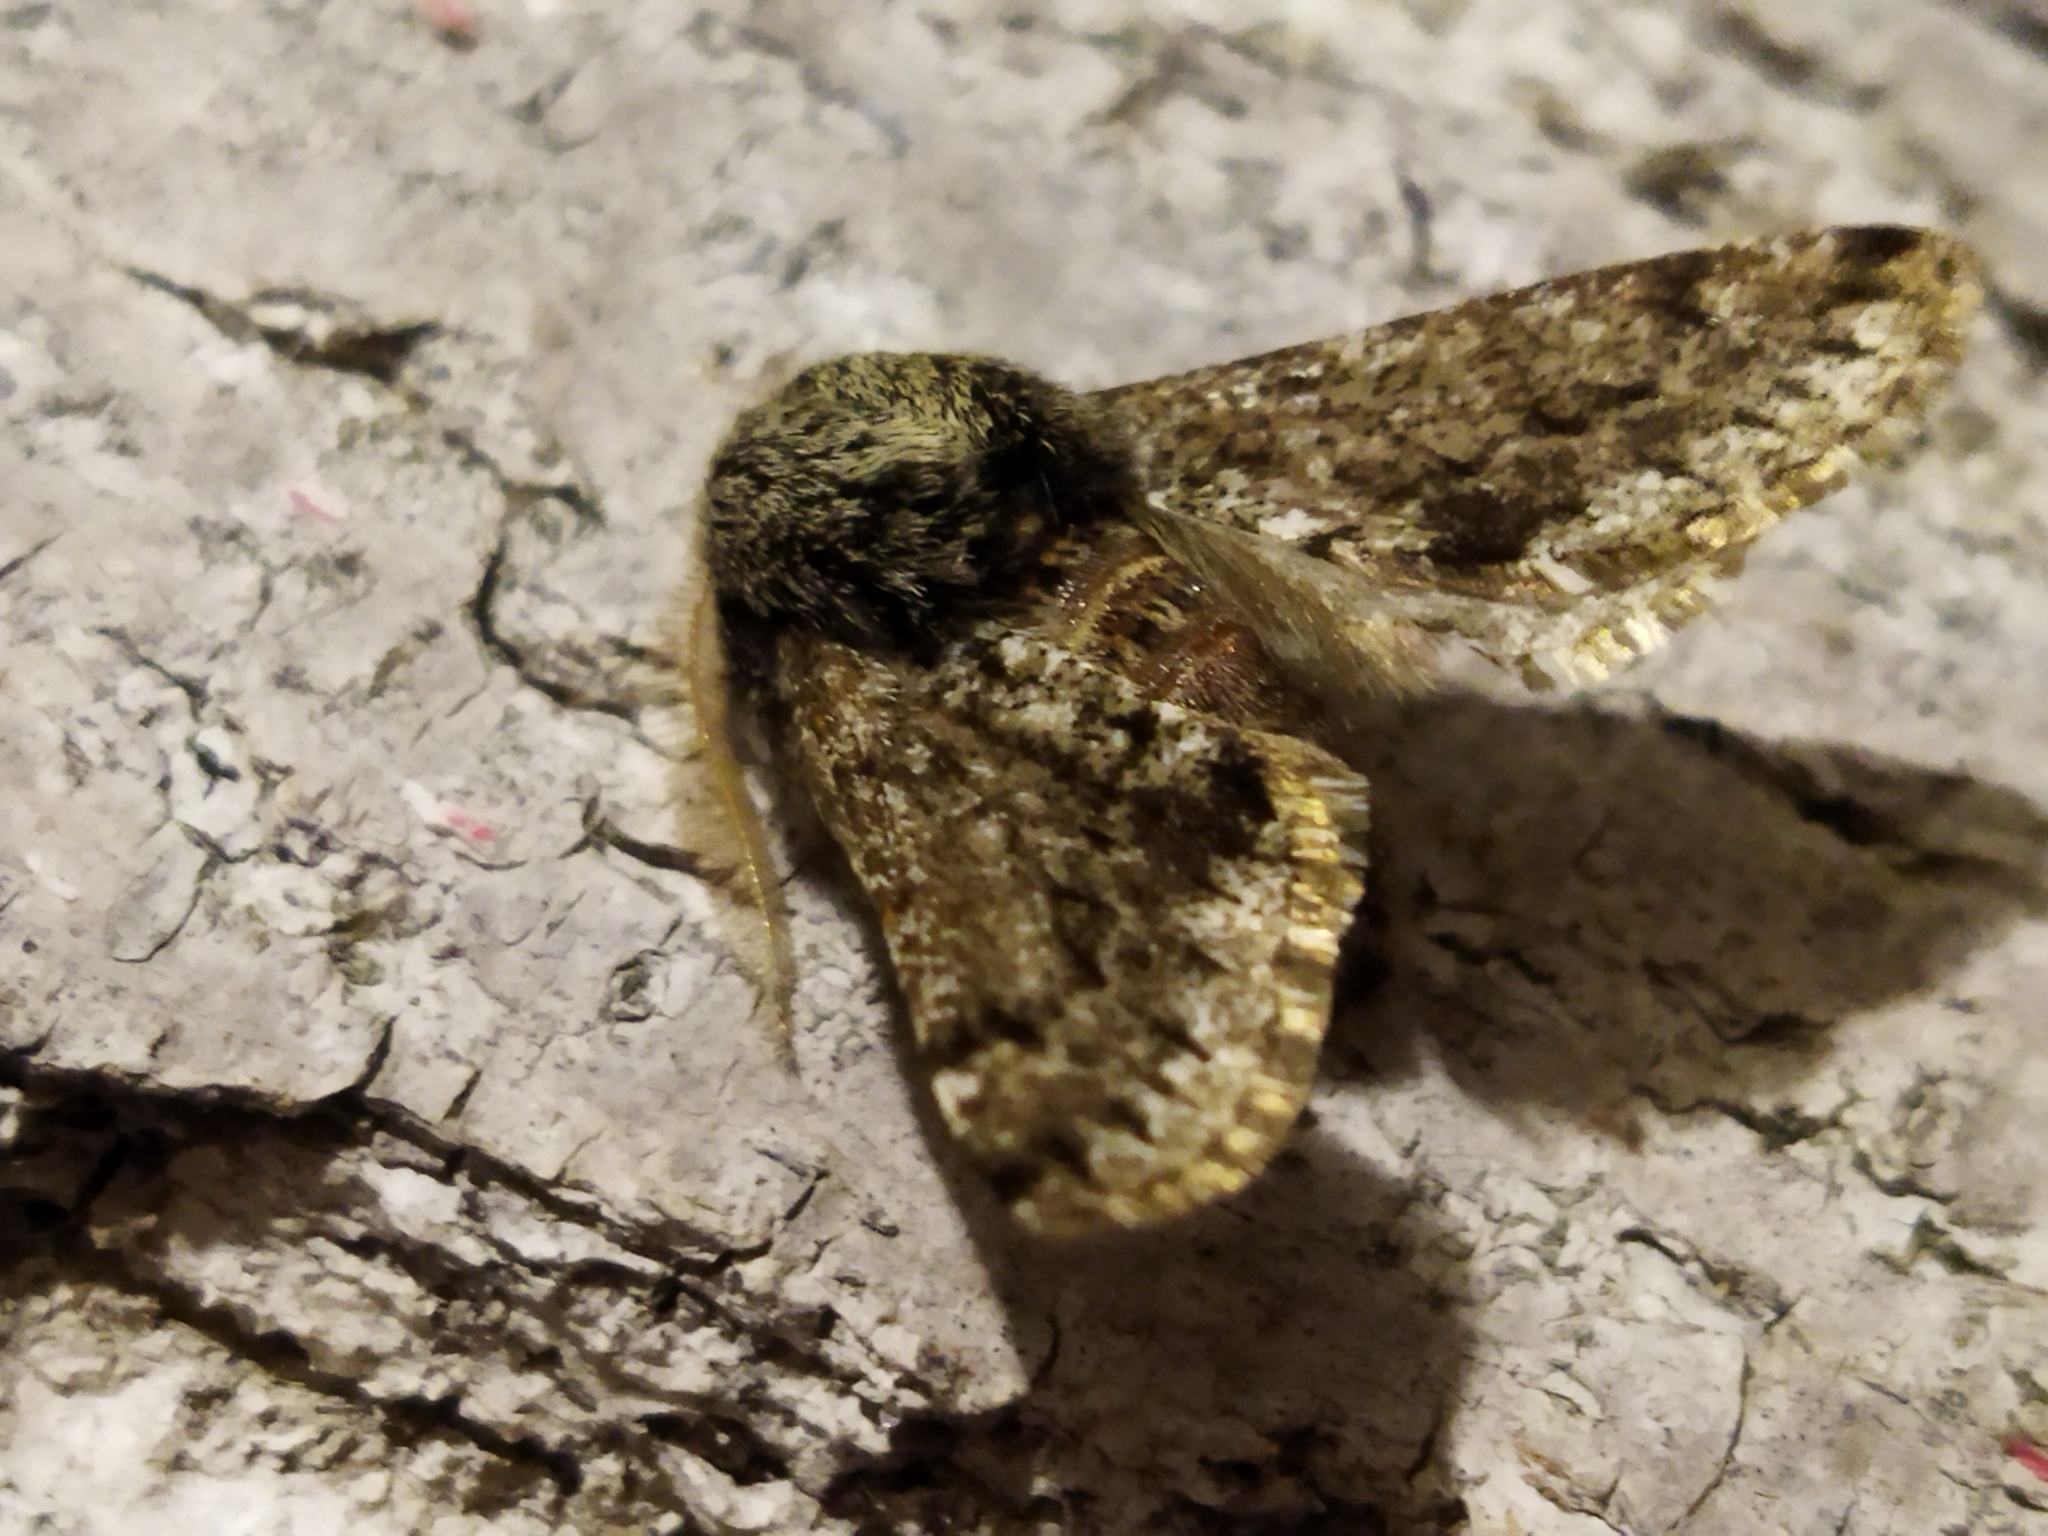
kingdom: Animalia
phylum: Arthropoda
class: Insecta
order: Lepidoptera
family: Geometridae
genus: Apocheima
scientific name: Apocheima hispidaria
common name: Small brindled beauty
